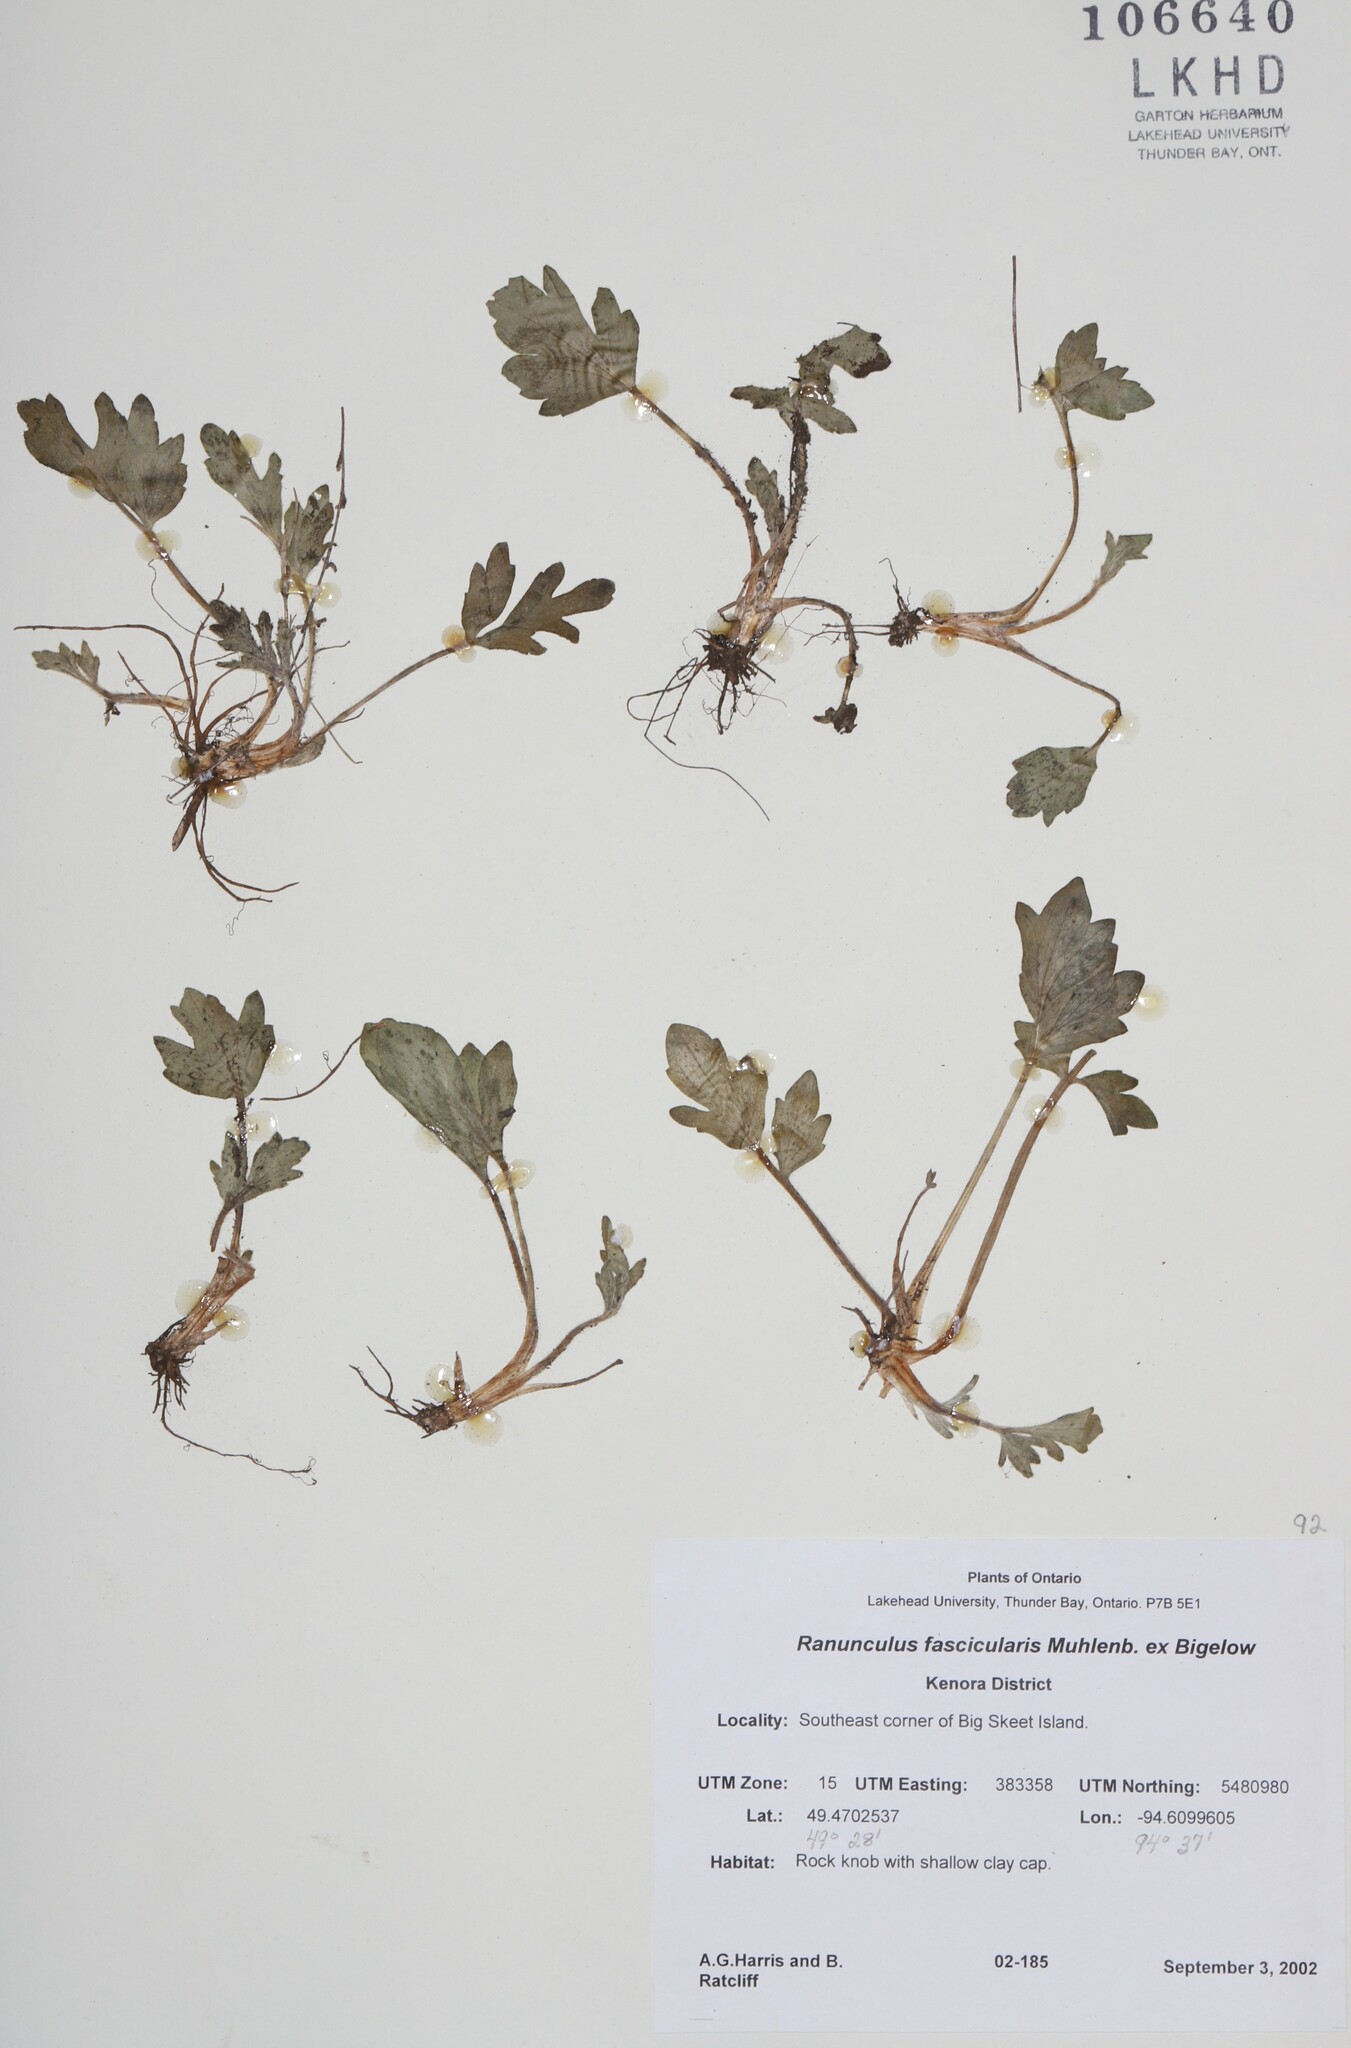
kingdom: Plantae
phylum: Tracheophyta
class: Magnoliopsida
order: Ranunculales
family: Ranunculaceae
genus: Ranunculus
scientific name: Ranunculus fascicularis
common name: Early buttercup
